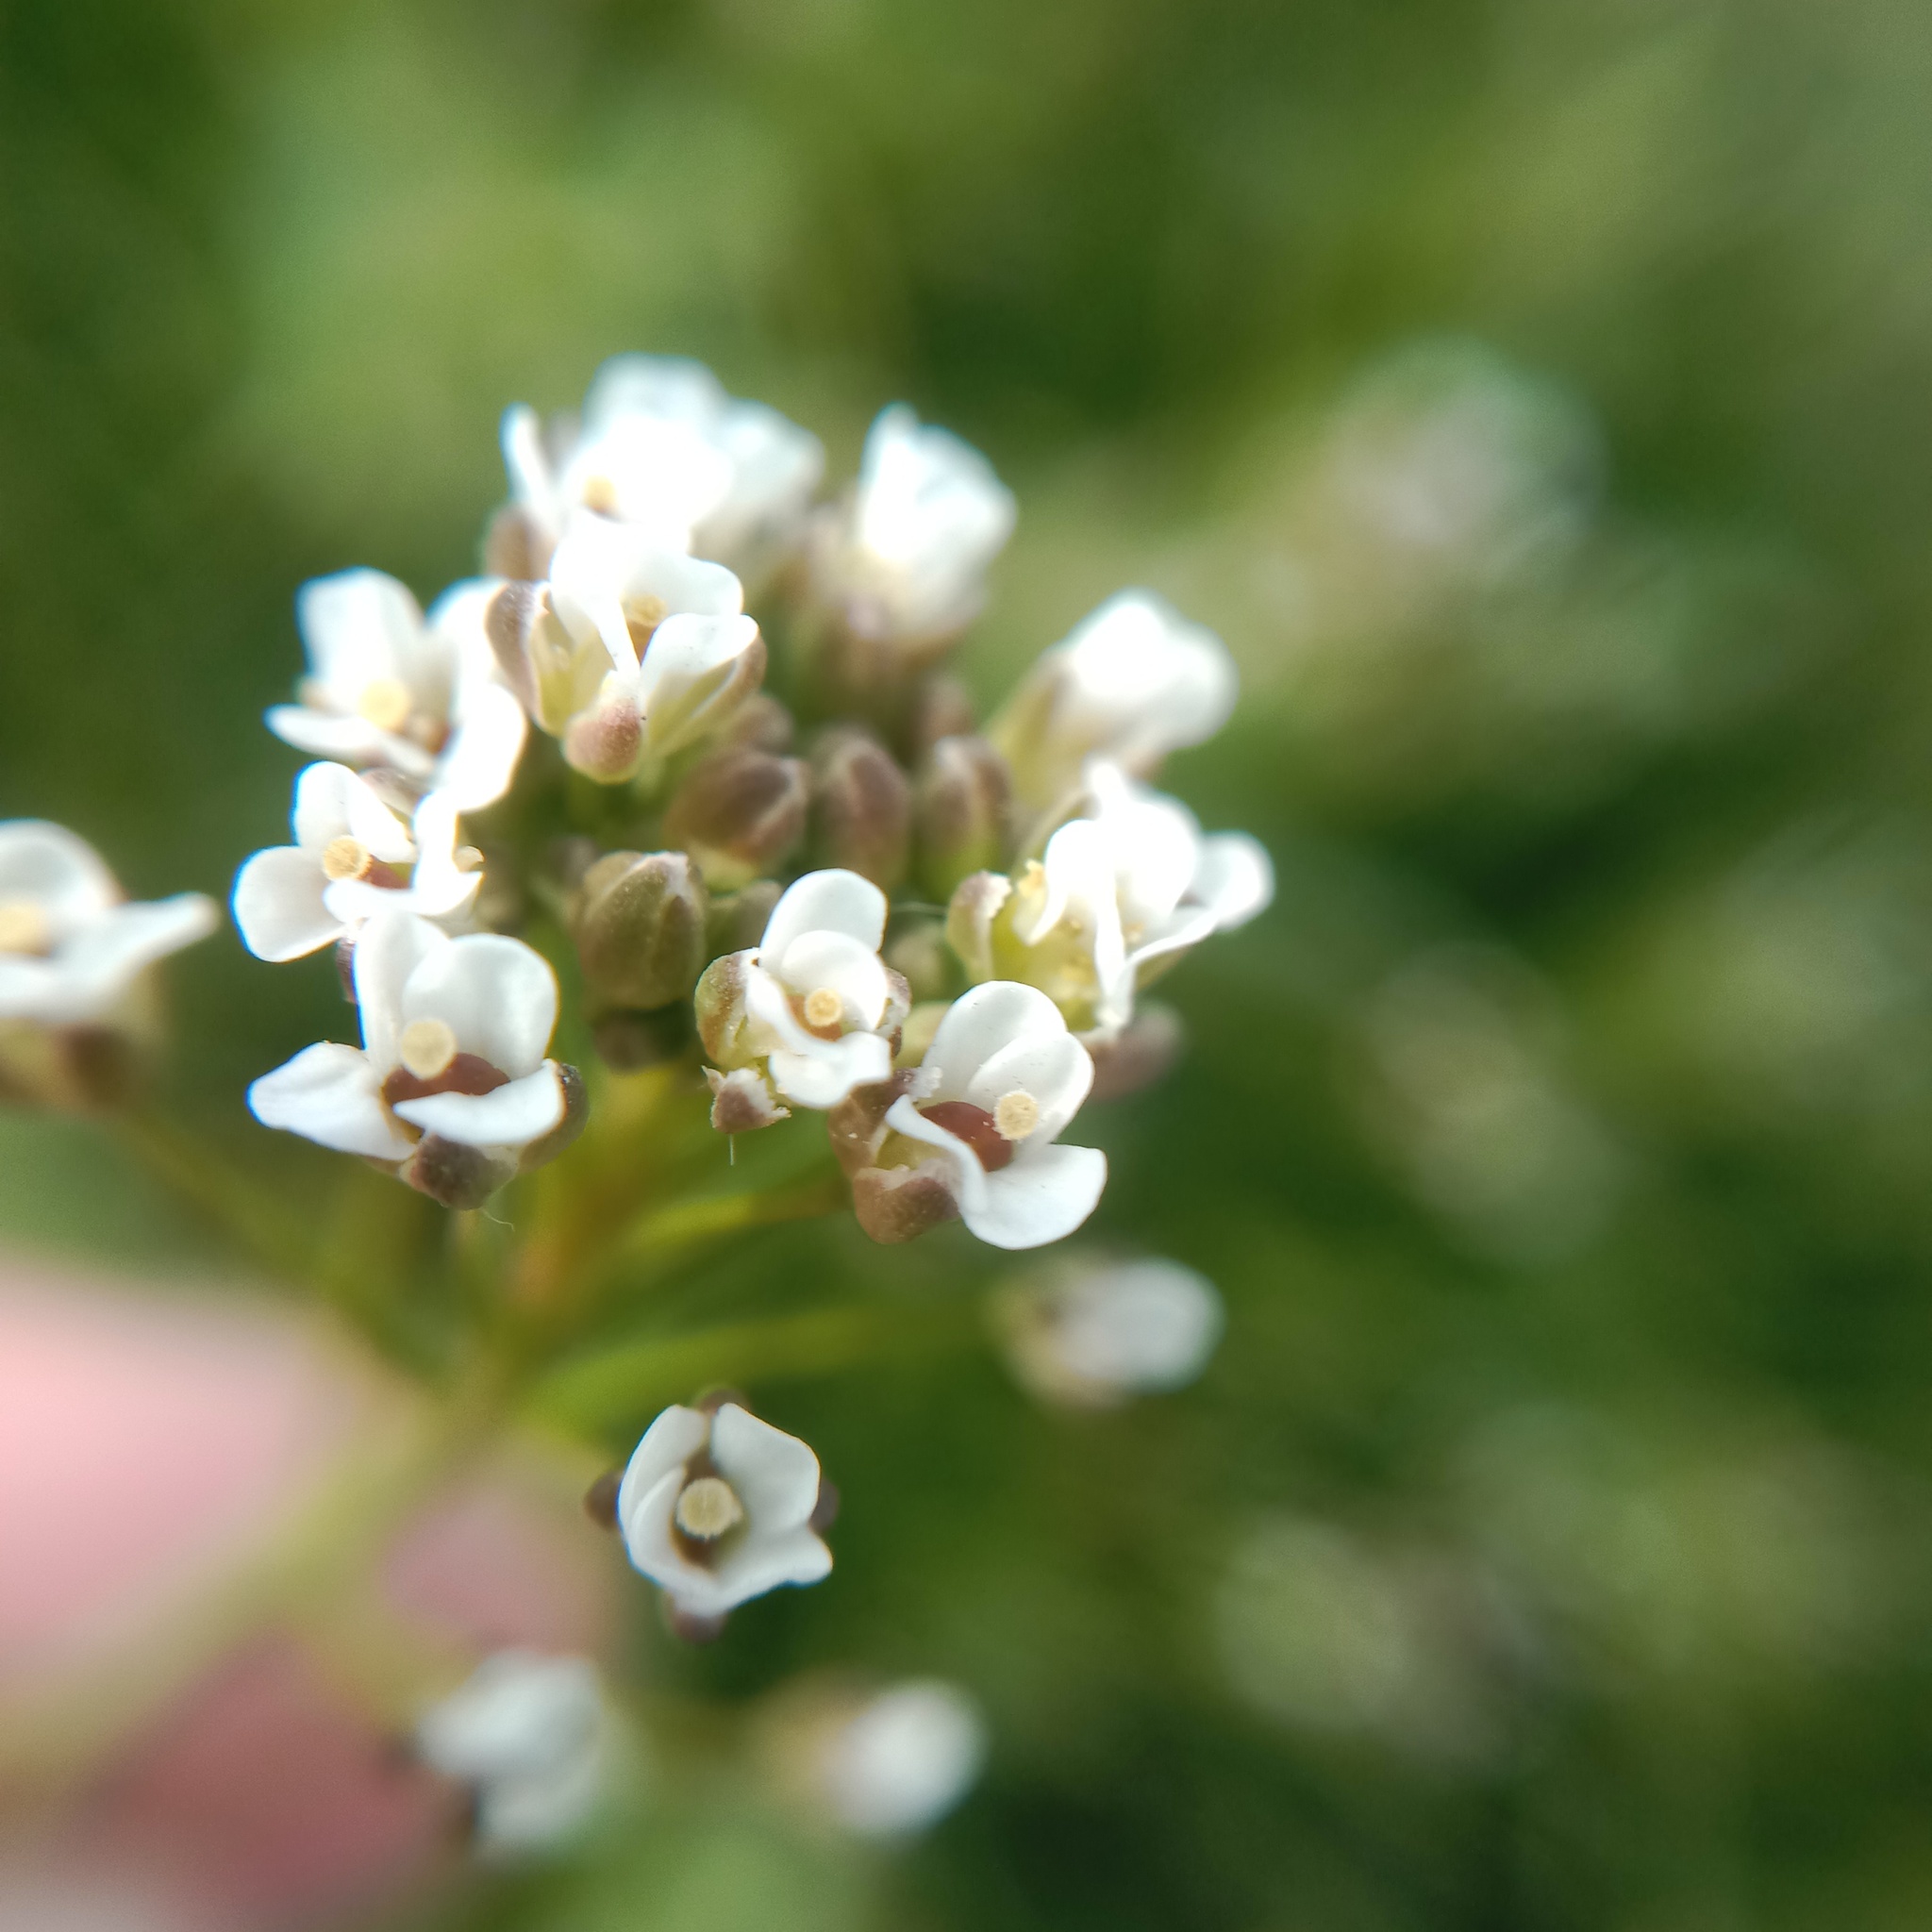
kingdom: Plantae
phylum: Tracheophyta
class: Magnoliopsida
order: Brassicales
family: Brassicaceae
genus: Capsella
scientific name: Capsella bursa-pastoris
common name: Shepherd's purse
